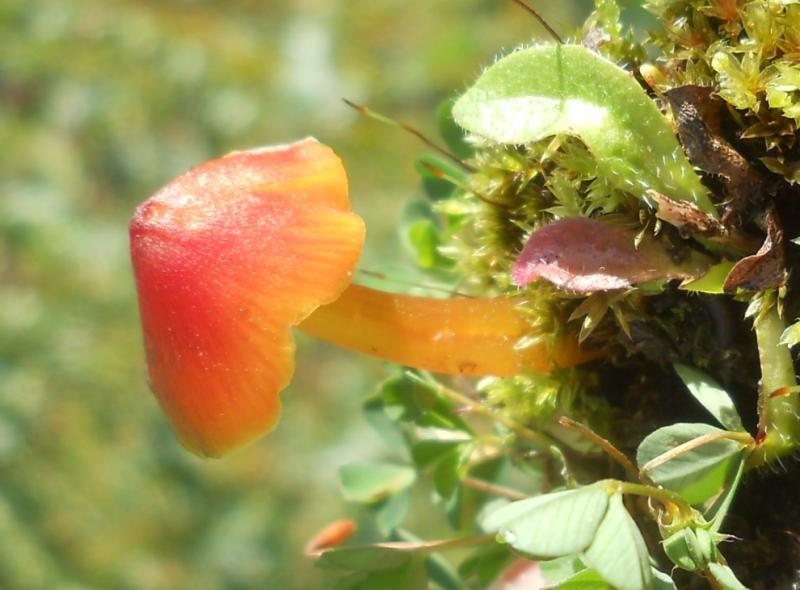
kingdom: Fungi
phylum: Basidiomycota
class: Agaricomycetes
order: Agaricales
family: Hygrophoraceae
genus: Hygrocybe
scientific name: Hygrocybe conica
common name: Blackening wax-cap
